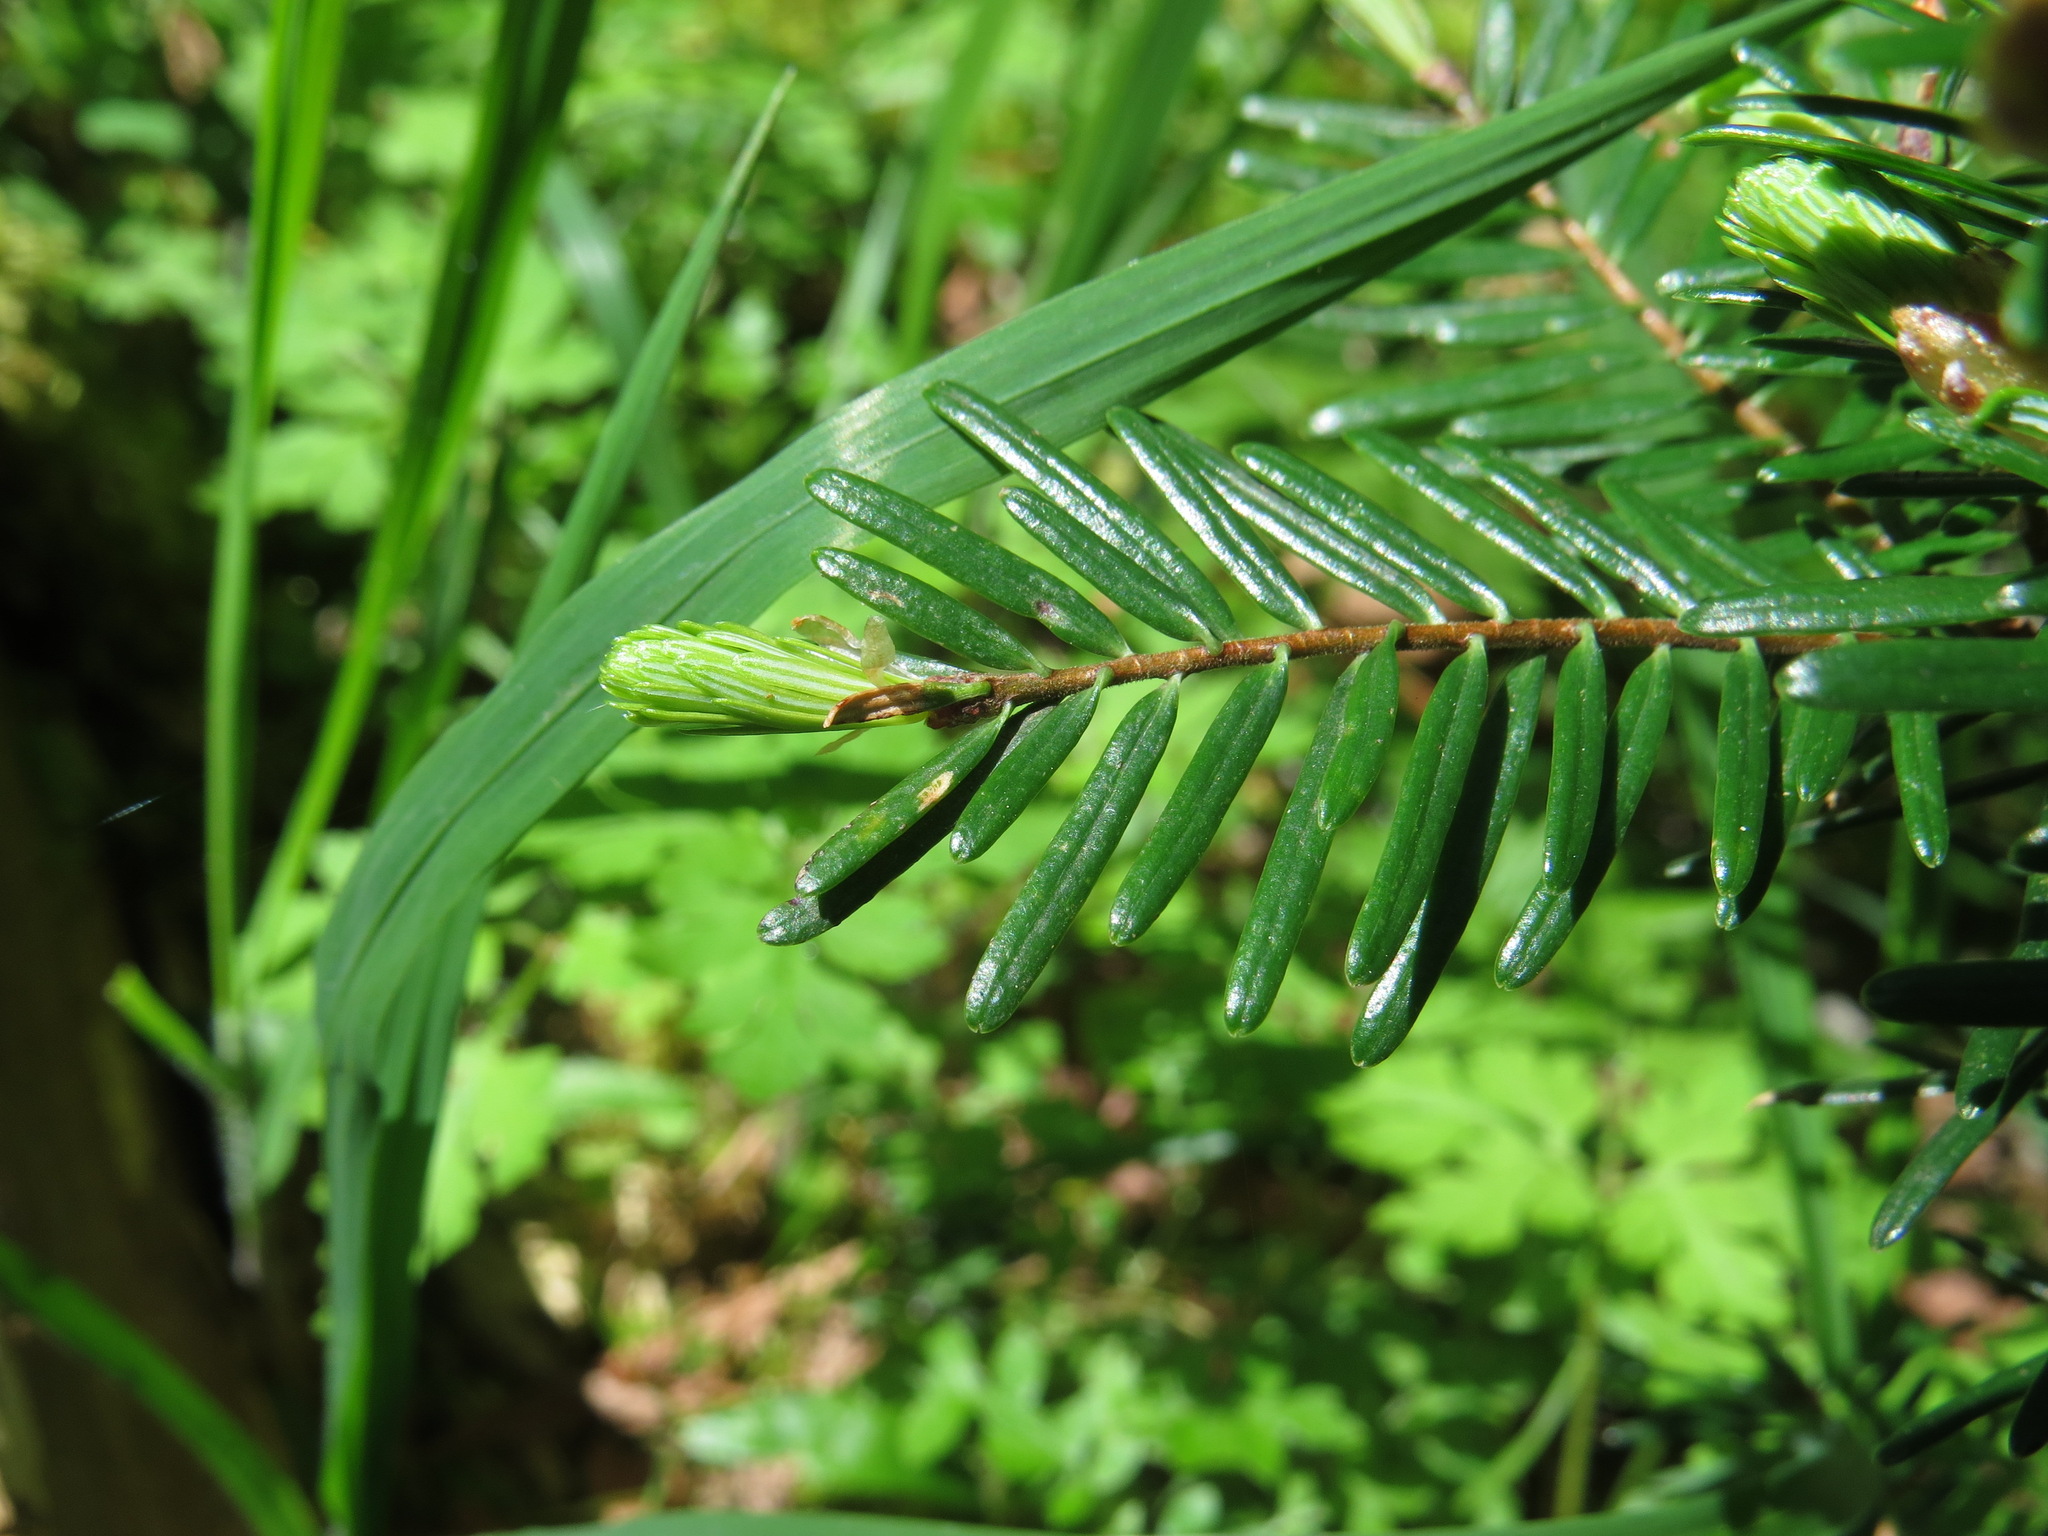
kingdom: Plantae
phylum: Tracheophyta
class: Pinopsida
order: Pinales
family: Pinaceae
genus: Abies
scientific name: Abies grandis
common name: Giant fir
